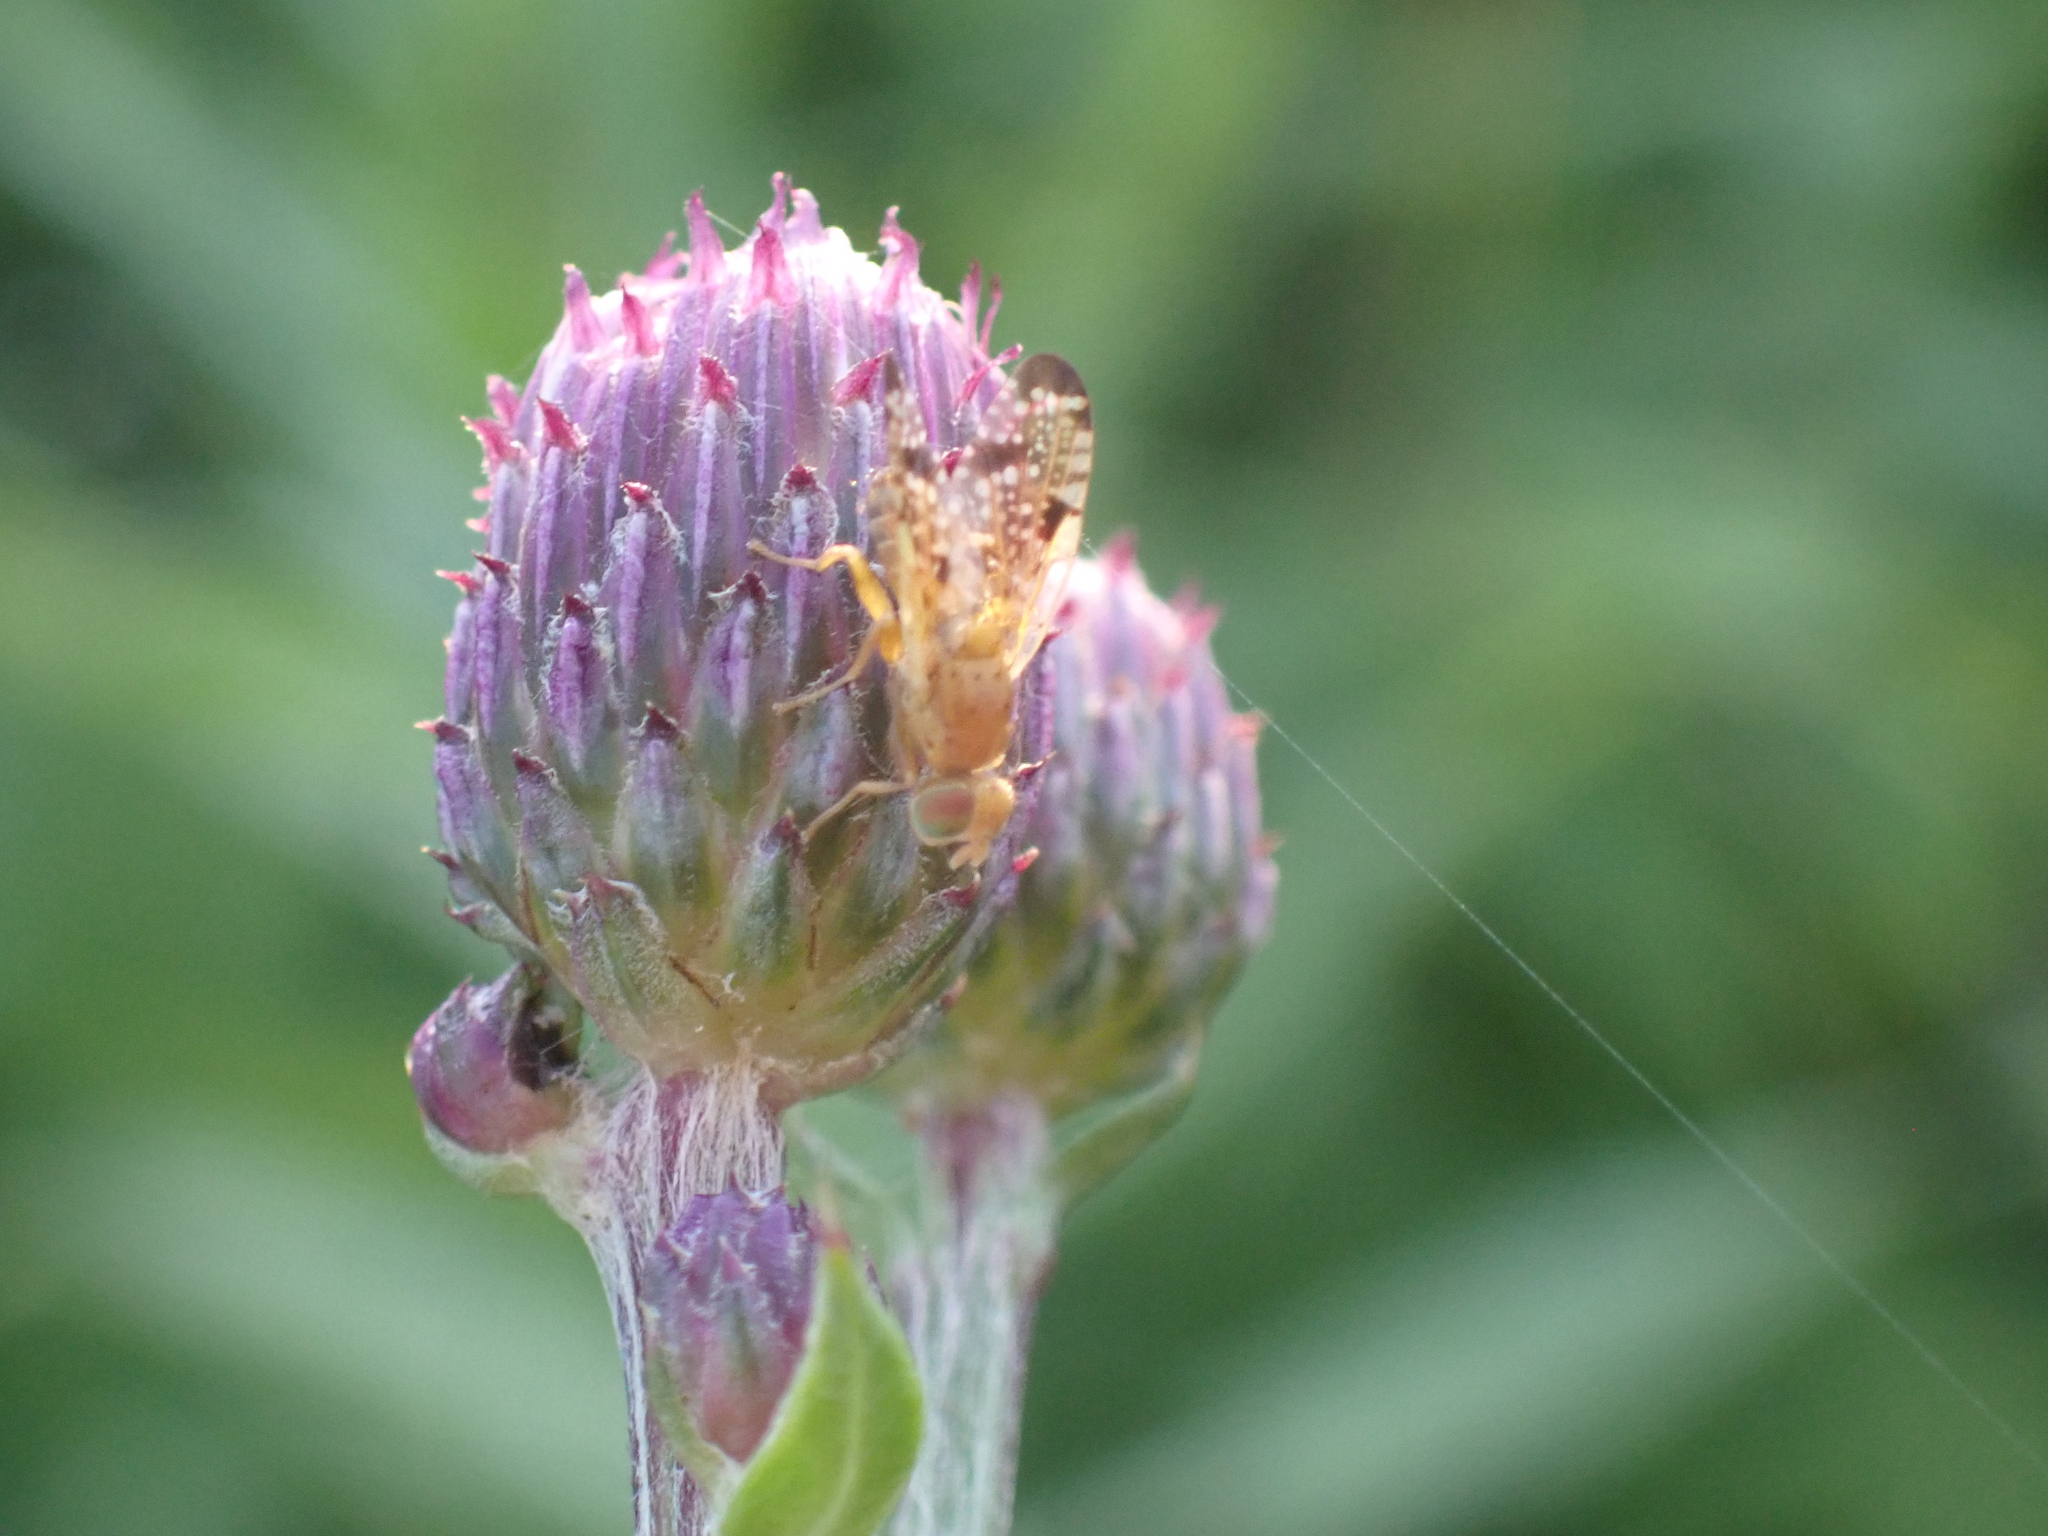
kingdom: Animalia
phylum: Arthropoda
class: Insecta
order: Diptera
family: Tephritidae
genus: Xyphosia
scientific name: Xyphosia miliaria
